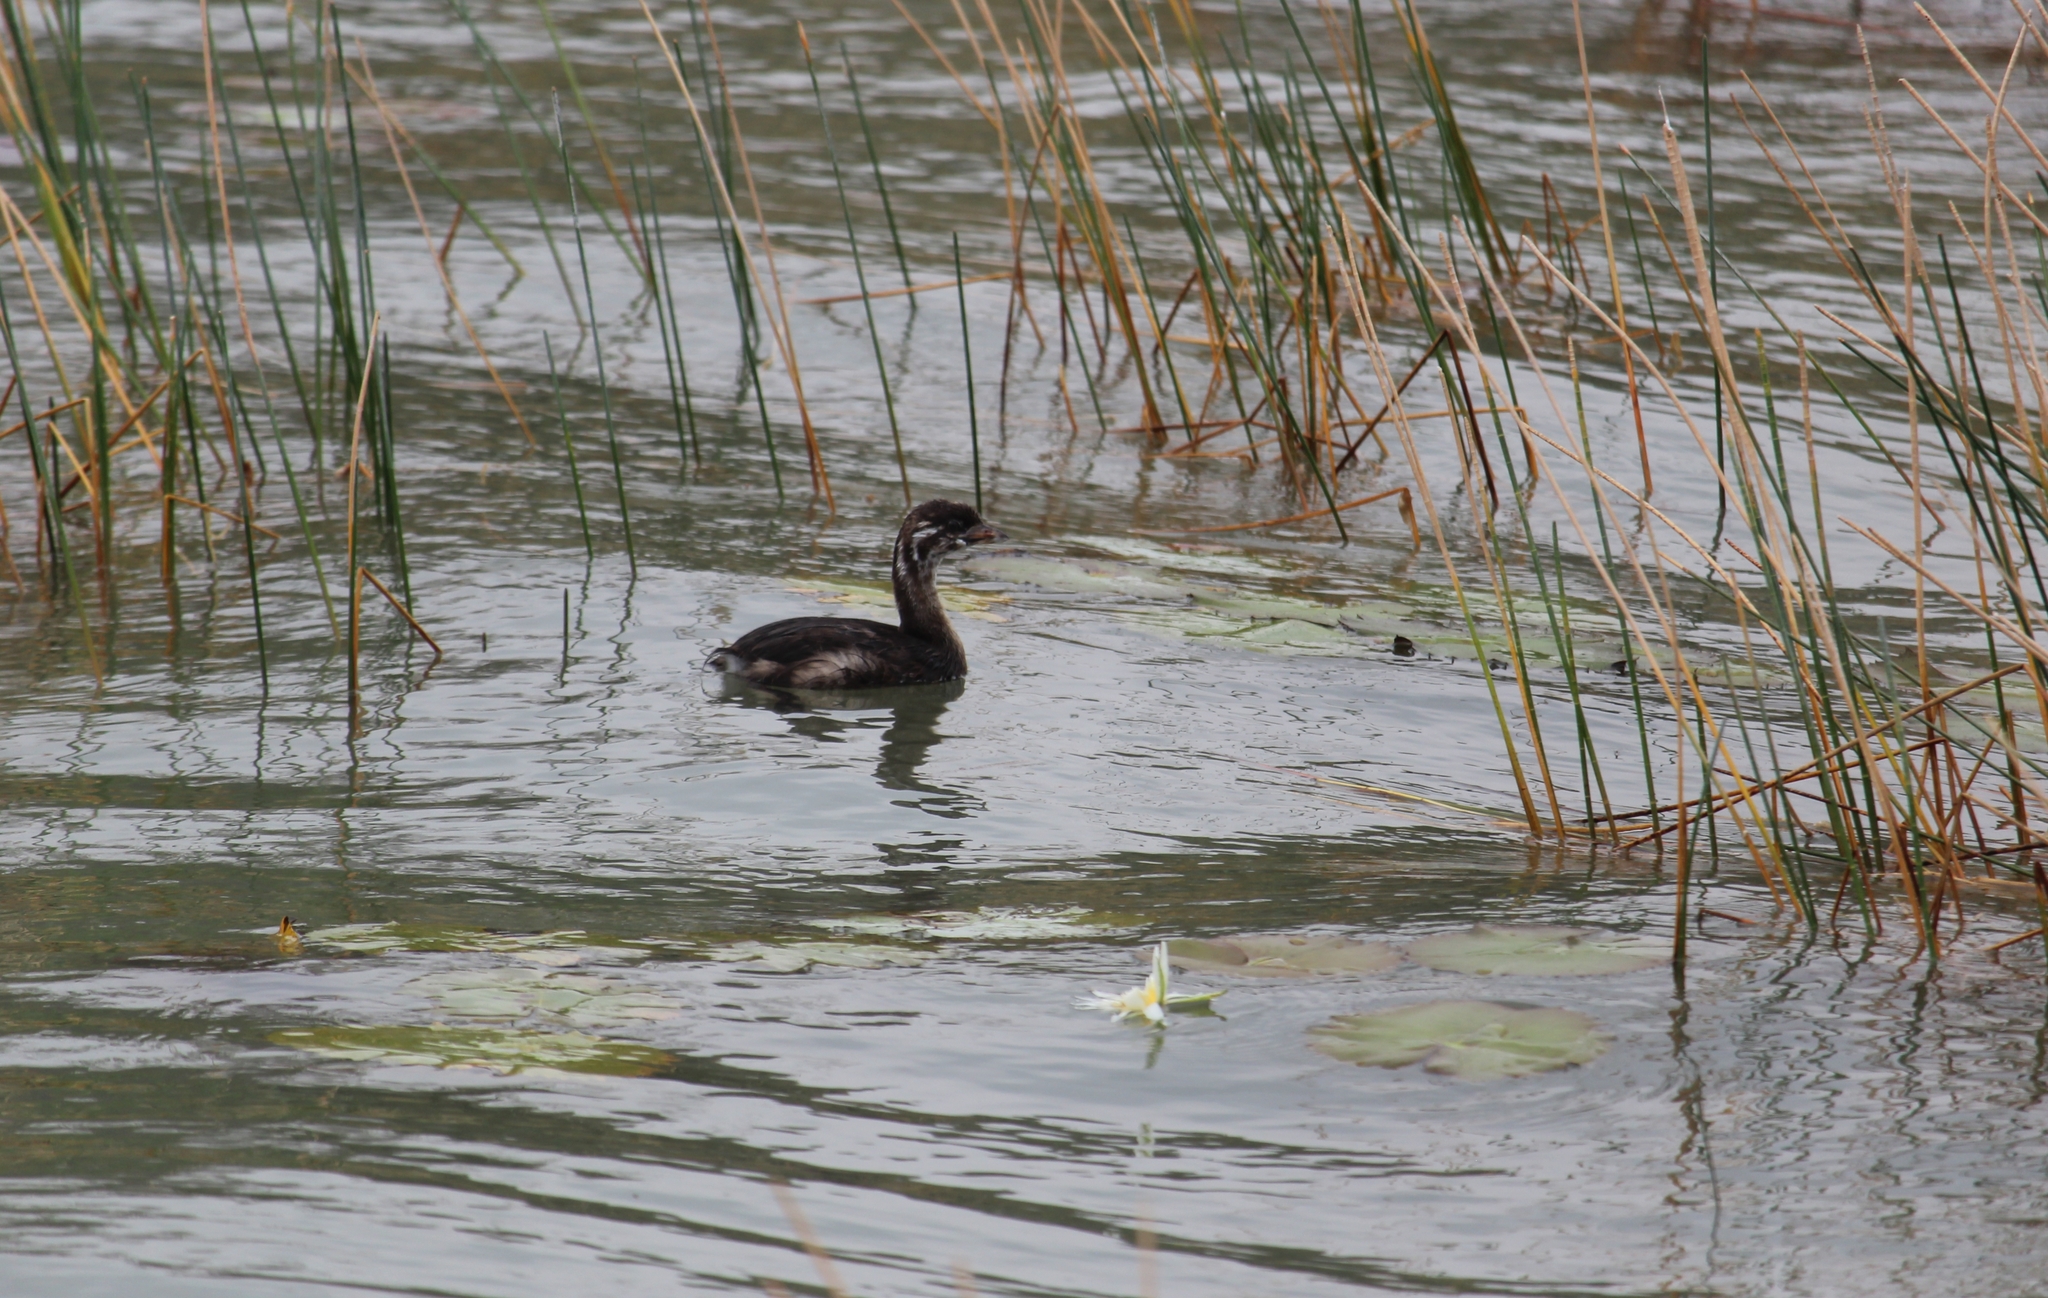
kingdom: Animalia
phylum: Chordata
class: Aves
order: Podicipediformes
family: Podicipedidae
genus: Podilymbus
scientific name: Podilymbus podiceps
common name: Pied-billed grebe
